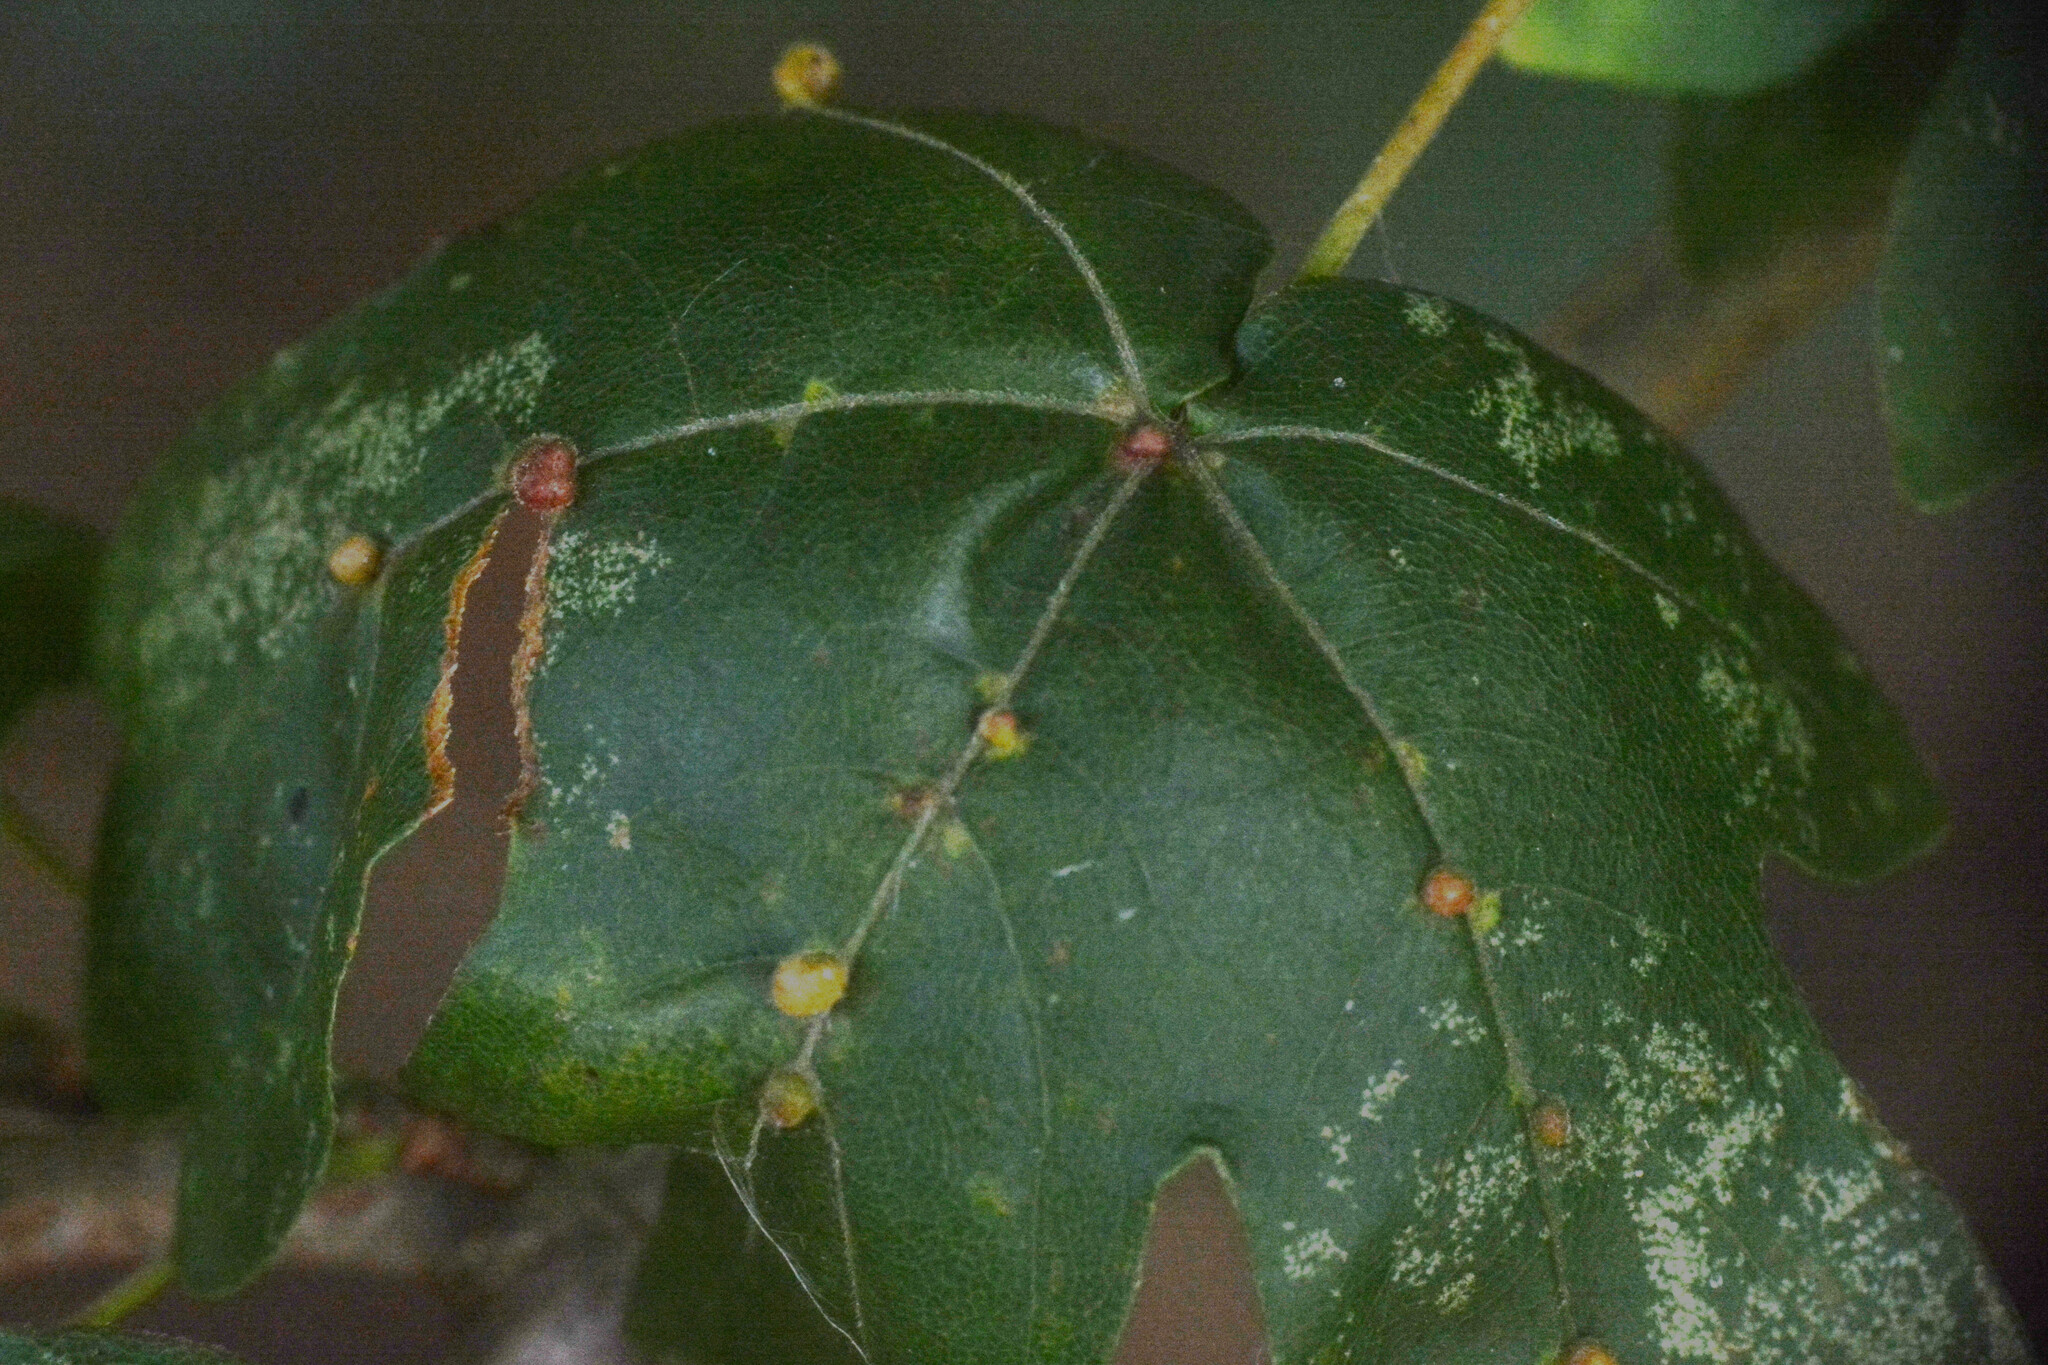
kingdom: Animalia
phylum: Arthropoda
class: Arachnida
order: Trombidiformes
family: Eriophyidae
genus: Aceria
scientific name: Aceria macrochelus
